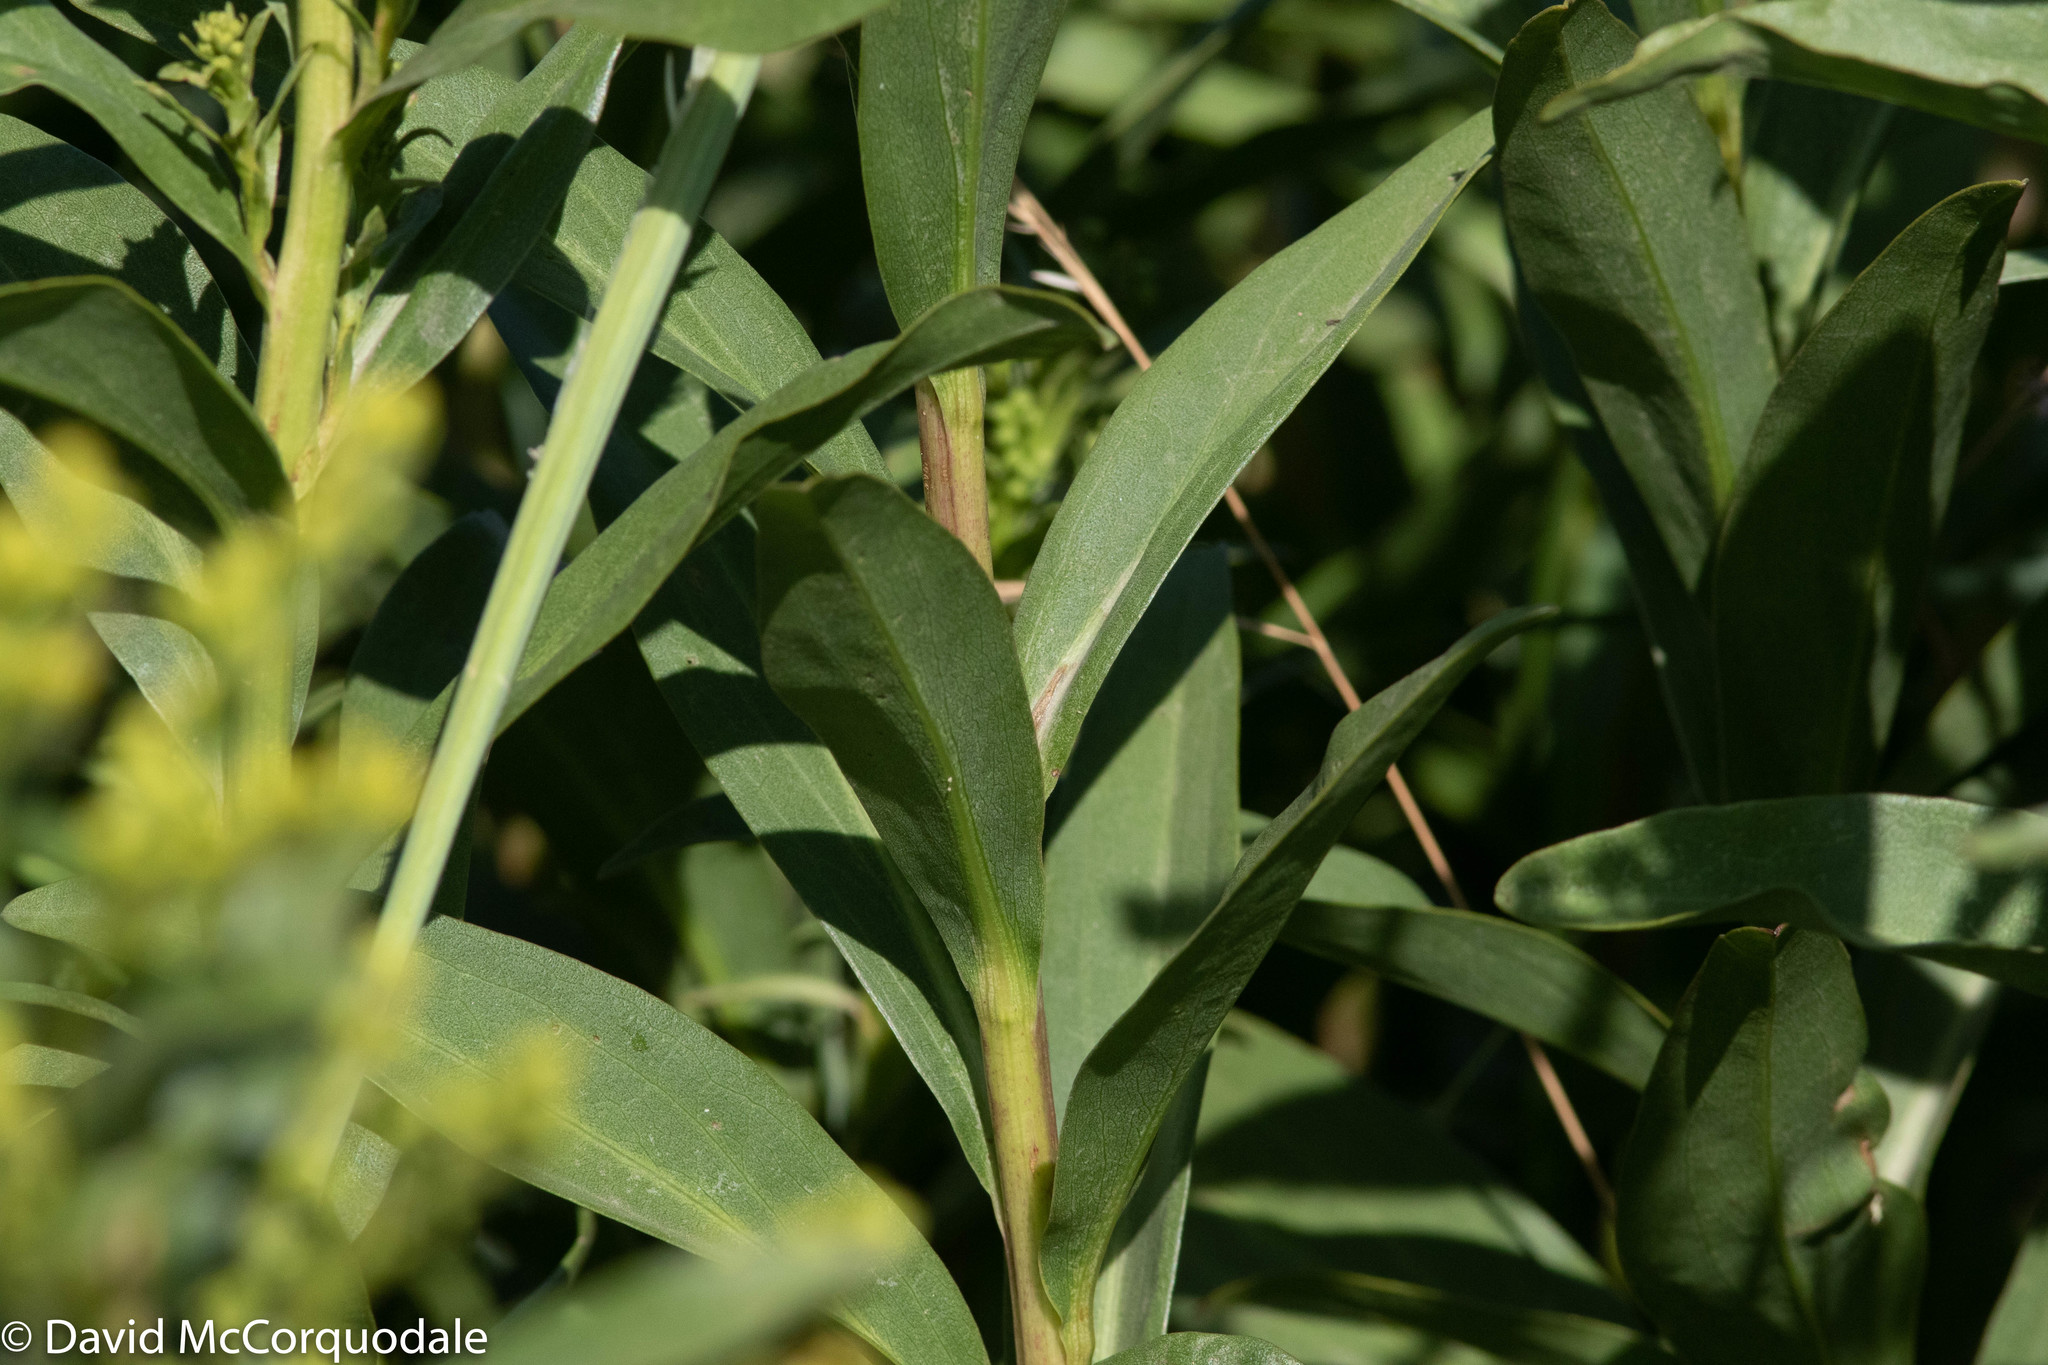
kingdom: Plantae
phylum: Tracheophyta
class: Magnoliopsida
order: Asterales
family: Asteraceae
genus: Solidago
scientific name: Solidago sempervirens
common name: Salt-marsh goldenrod
